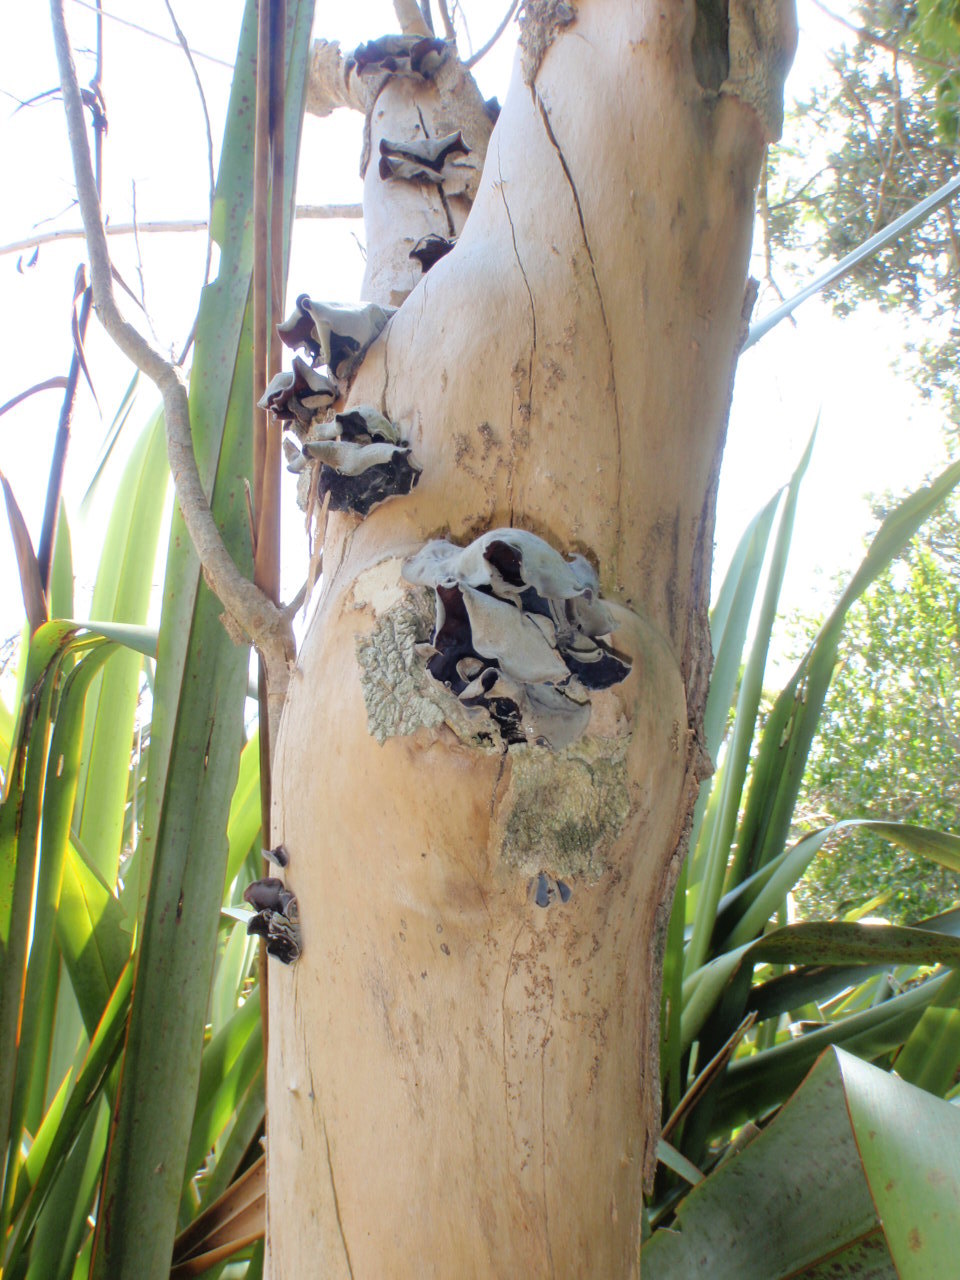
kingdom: Fungi
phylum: Basidiomycota
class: Agaricomycetes
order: Auriculariales
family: Auriculariaceae
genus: Auricularia
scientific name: Auricularia cornea
